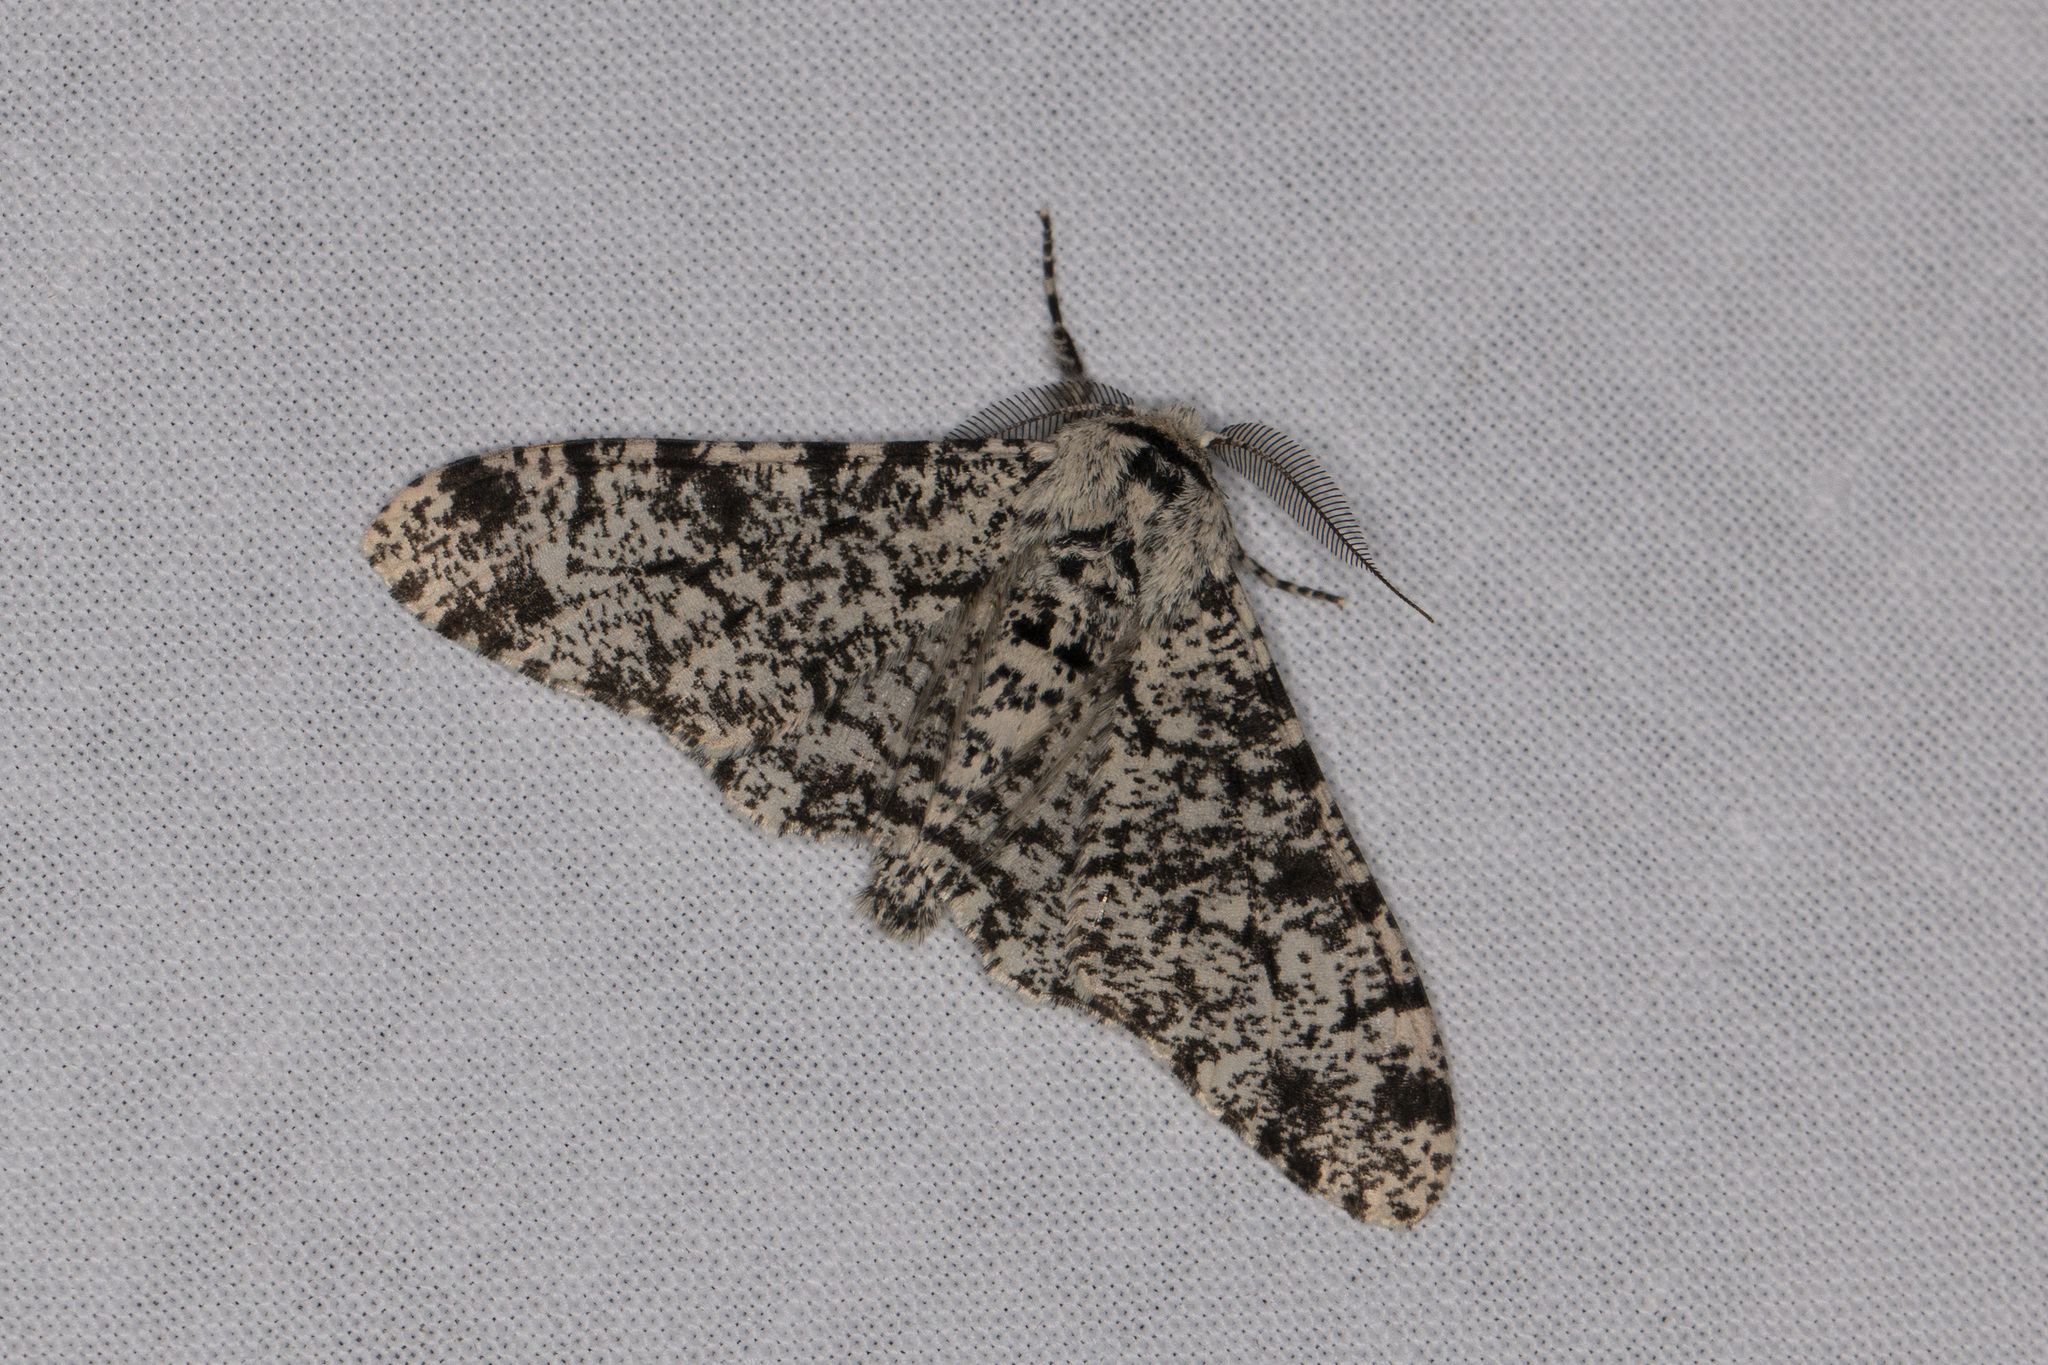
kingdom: Animalia
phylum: Arthropoda
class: Insecta
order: Lepidoptera
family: Geometridae
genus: Biston
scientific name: Biston betularia
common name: Peppered moth
